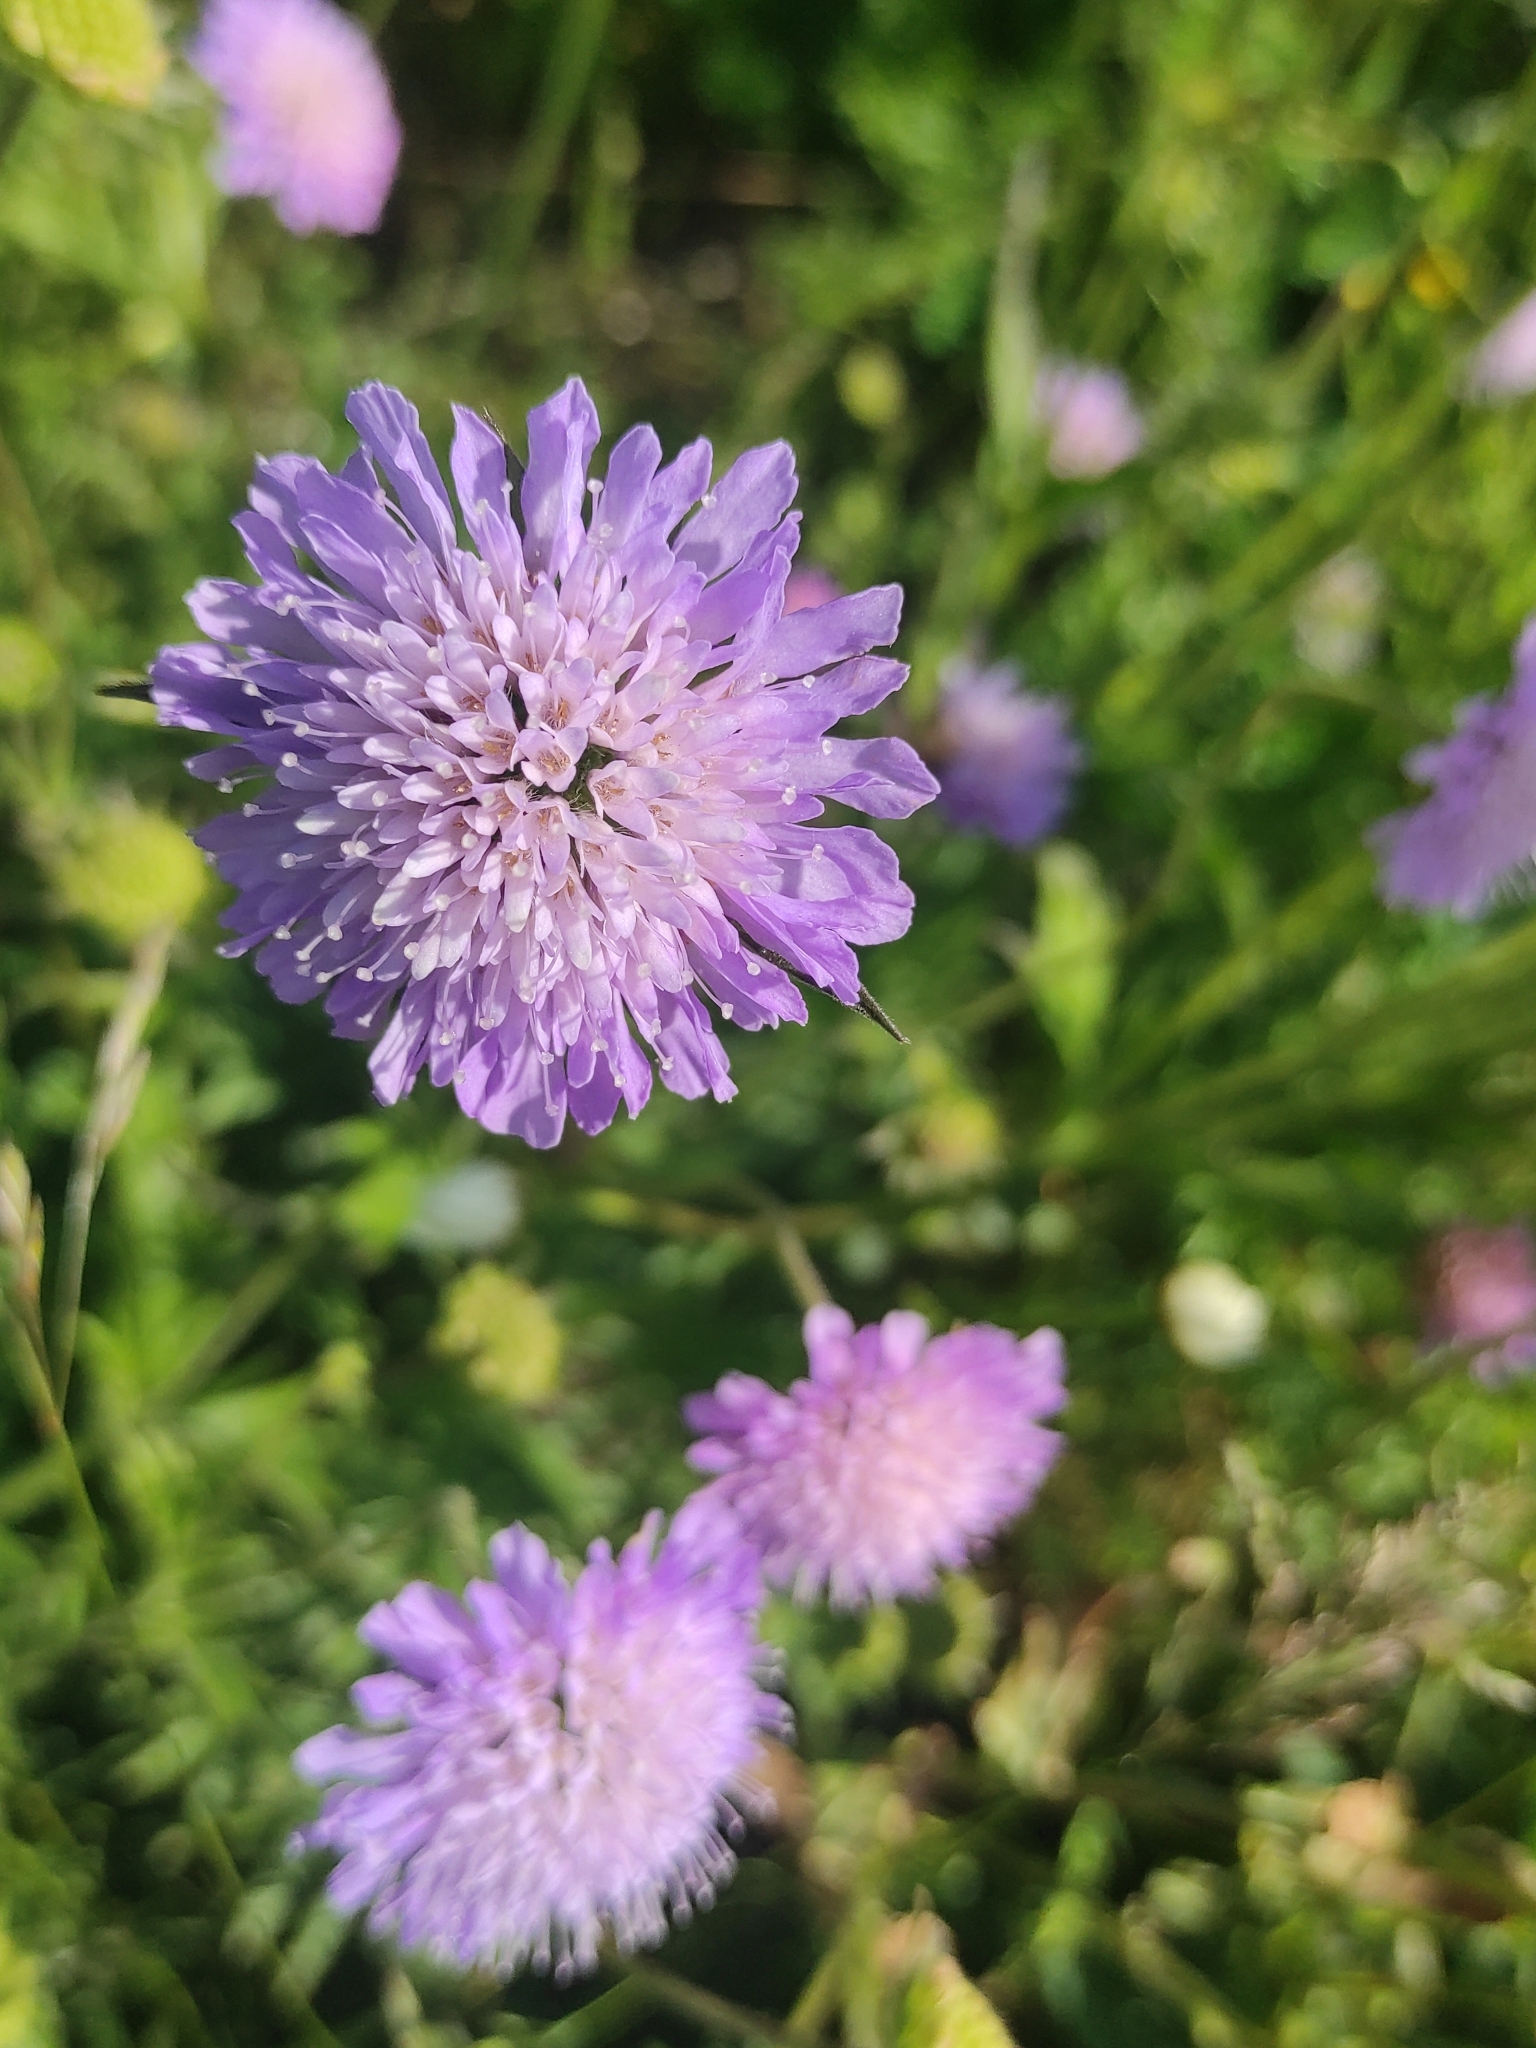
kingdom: Plantae
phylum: Tracheophyta
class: Magnoliopsida
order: Dipsacales
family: Caprifoliaceae
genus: Knautia
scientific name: Knautia arvensis
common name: Field scabiosa
